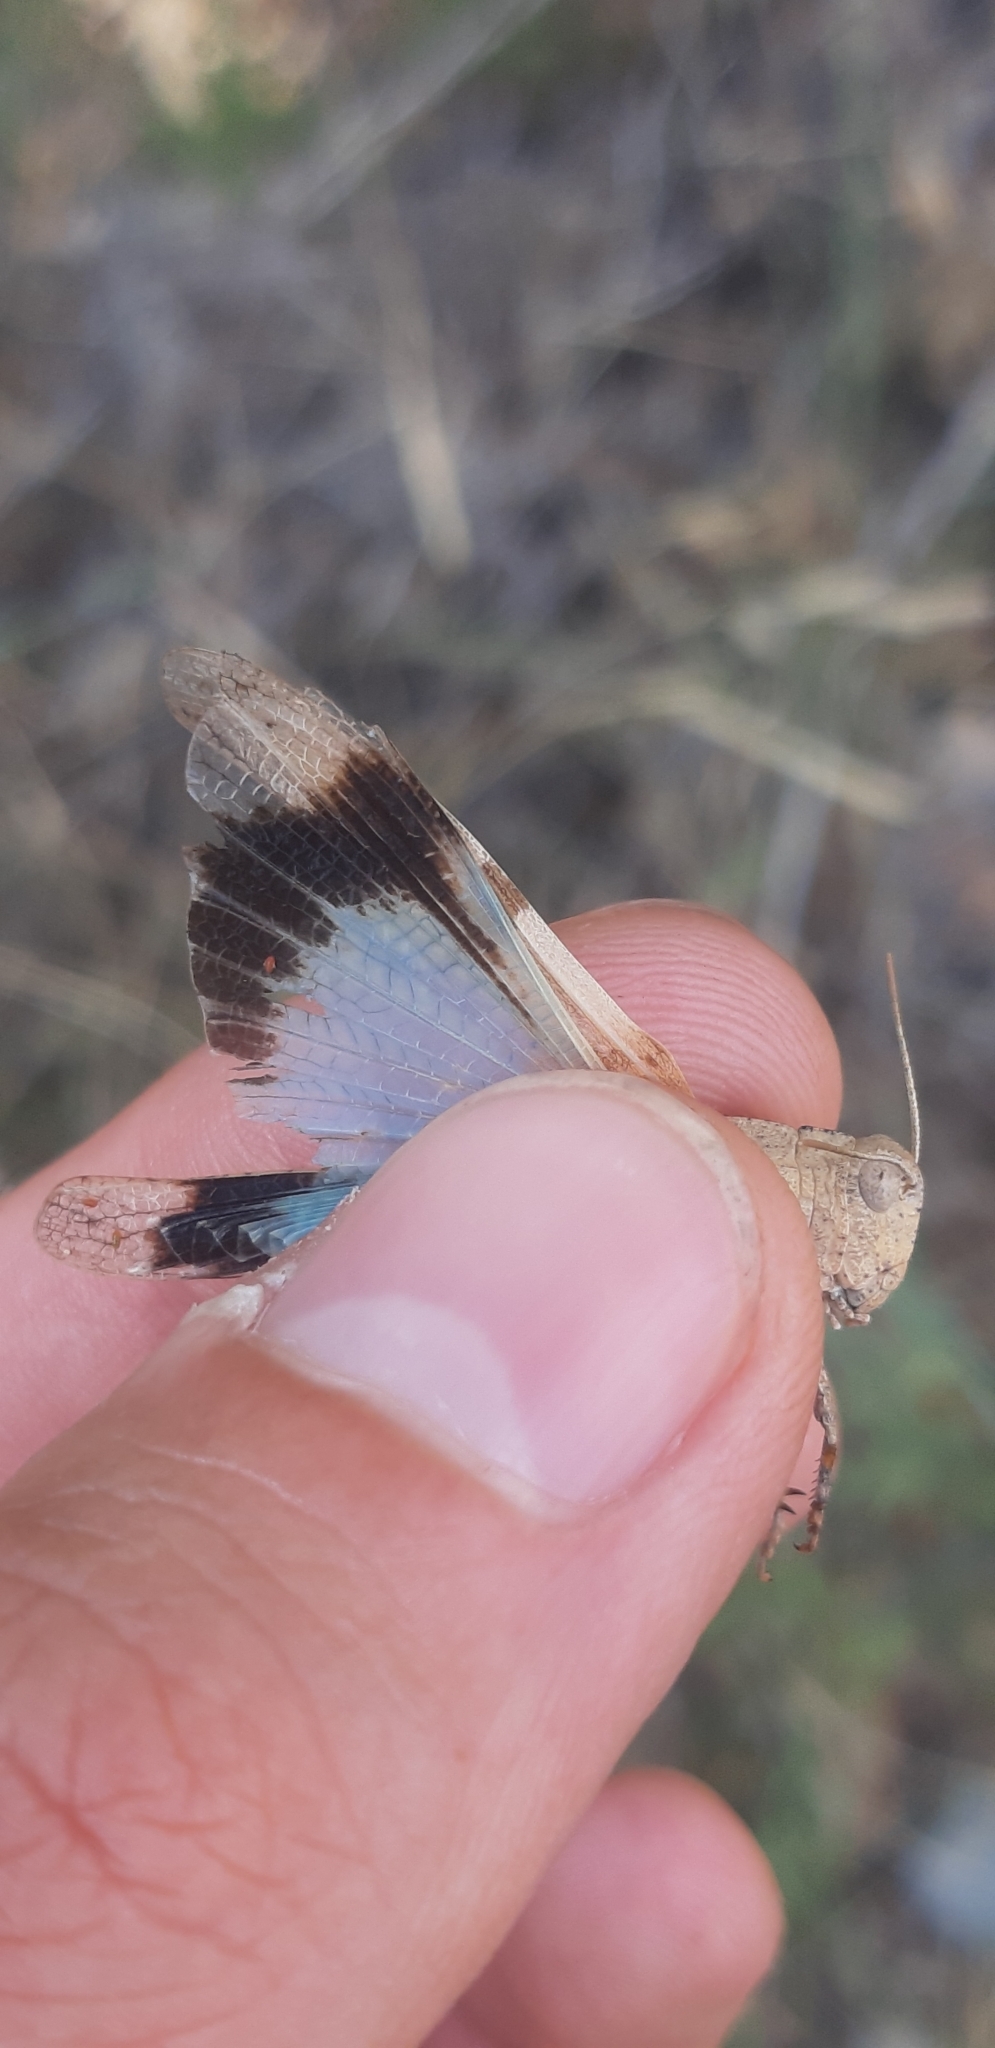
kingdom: Animalia
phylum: Arthropoda
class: Insecta
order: Orthoptera
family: Acrididae
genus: Oedipoda
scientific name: Oedipoda caerulescens
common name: Blue-winged grasshopper
